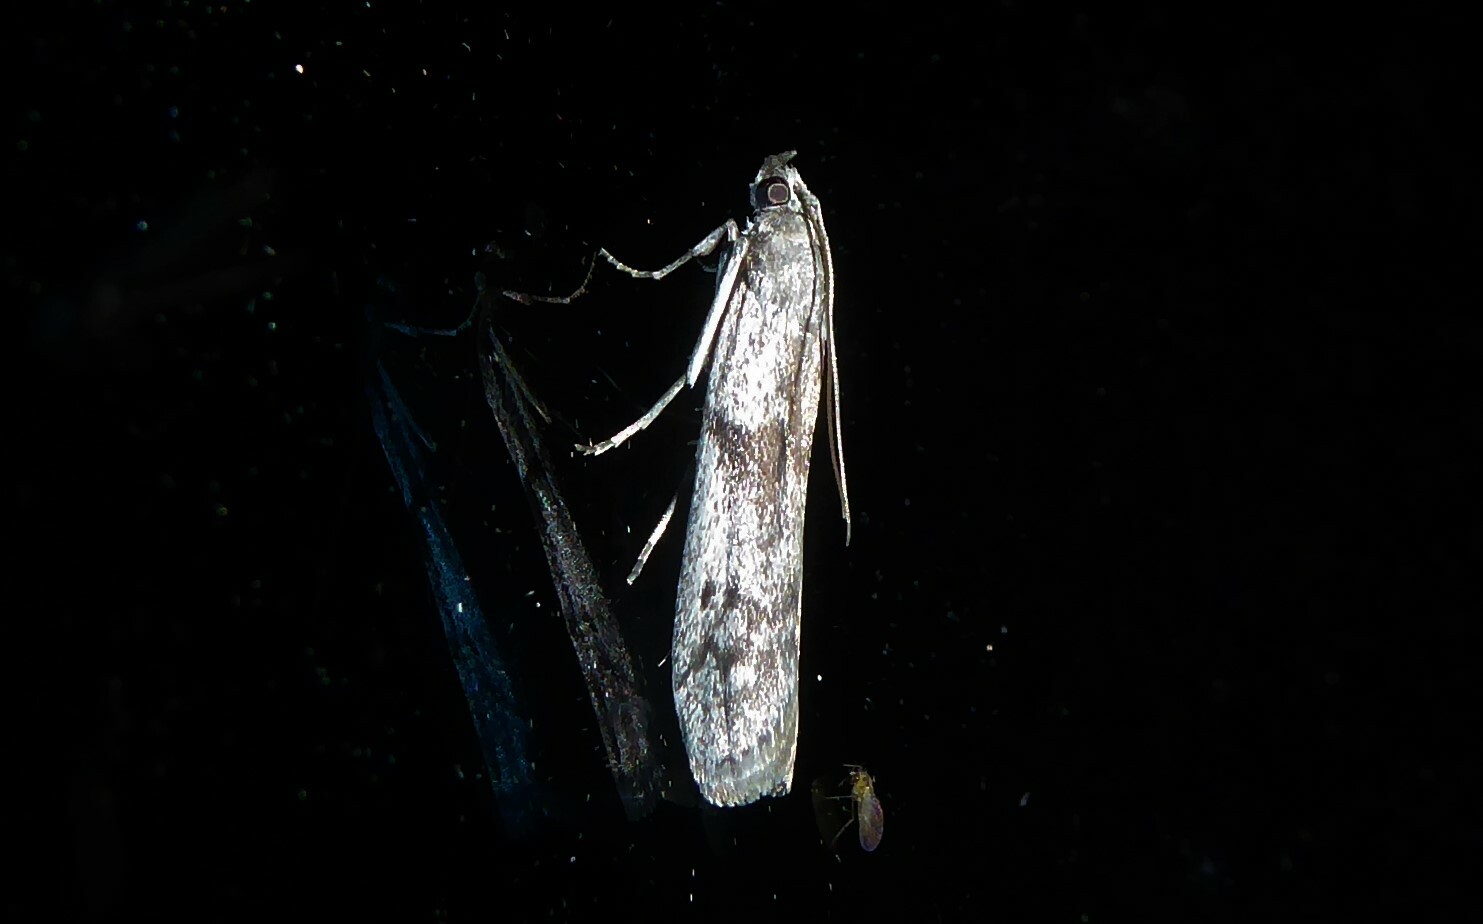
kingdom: Animalia
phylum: Arthropoda
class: Insecta
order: Lepidoptera
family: Pyralidae
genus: Patagoniodes
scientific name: Patagoniodes farinaria
